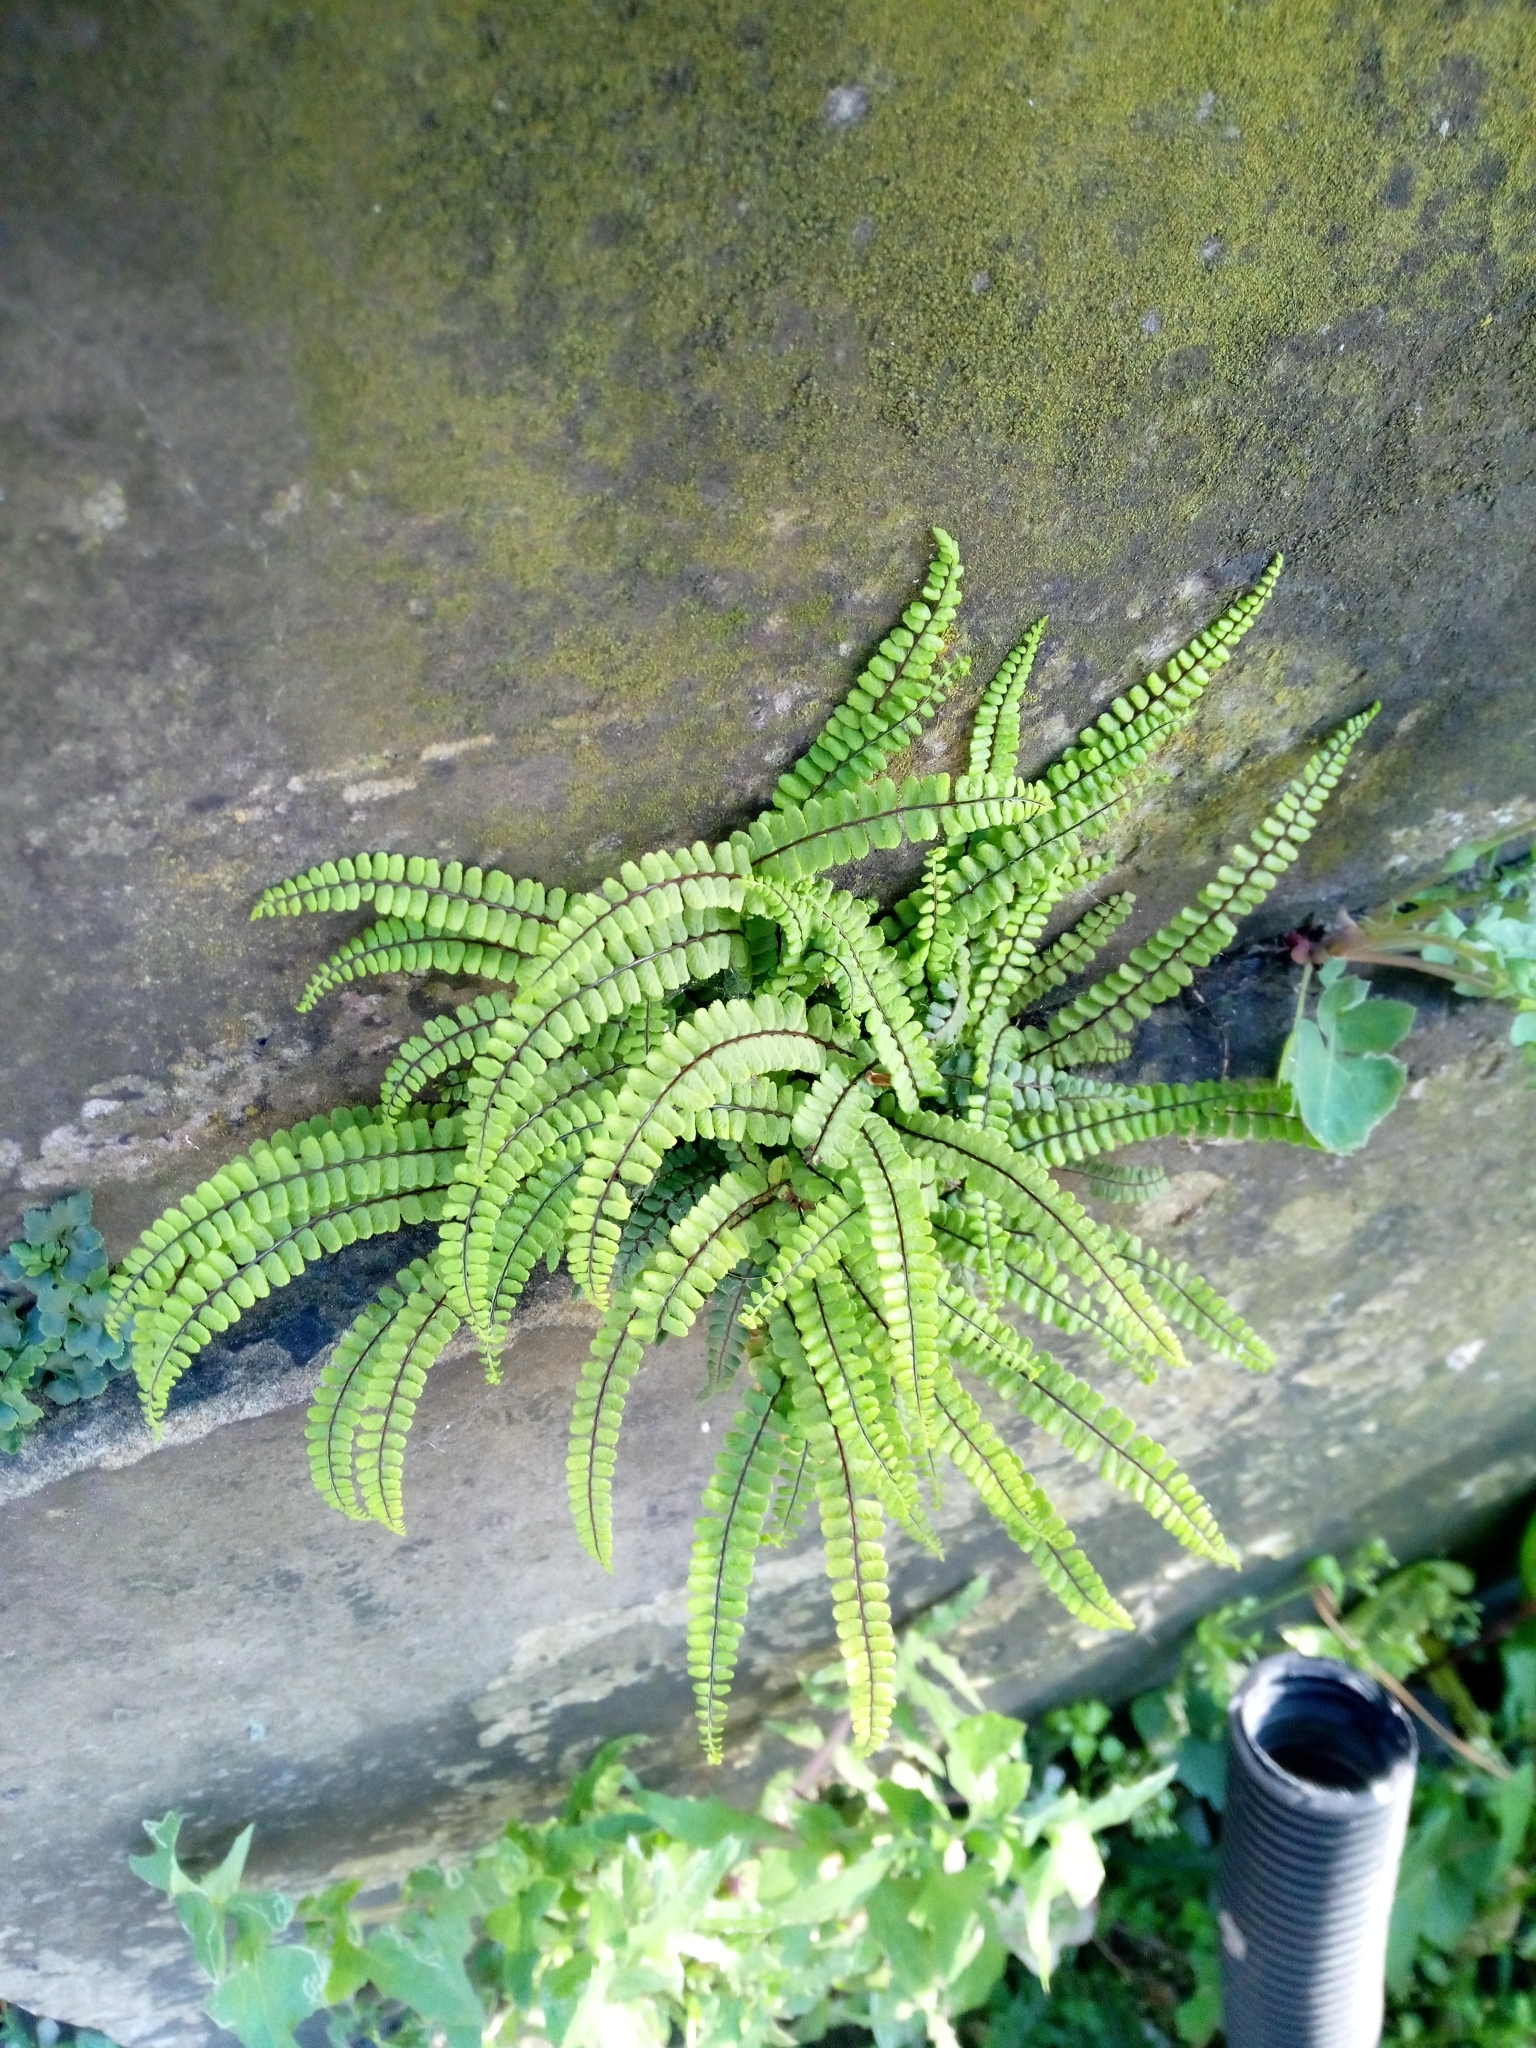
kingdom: Plantae
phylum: Tracheophyta
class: Polypodiopsida
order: Polypodiales
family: Aspleniaceae
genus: Asplenium
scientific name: Asplenium trichomanes
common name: Maidenhair spleenwort
